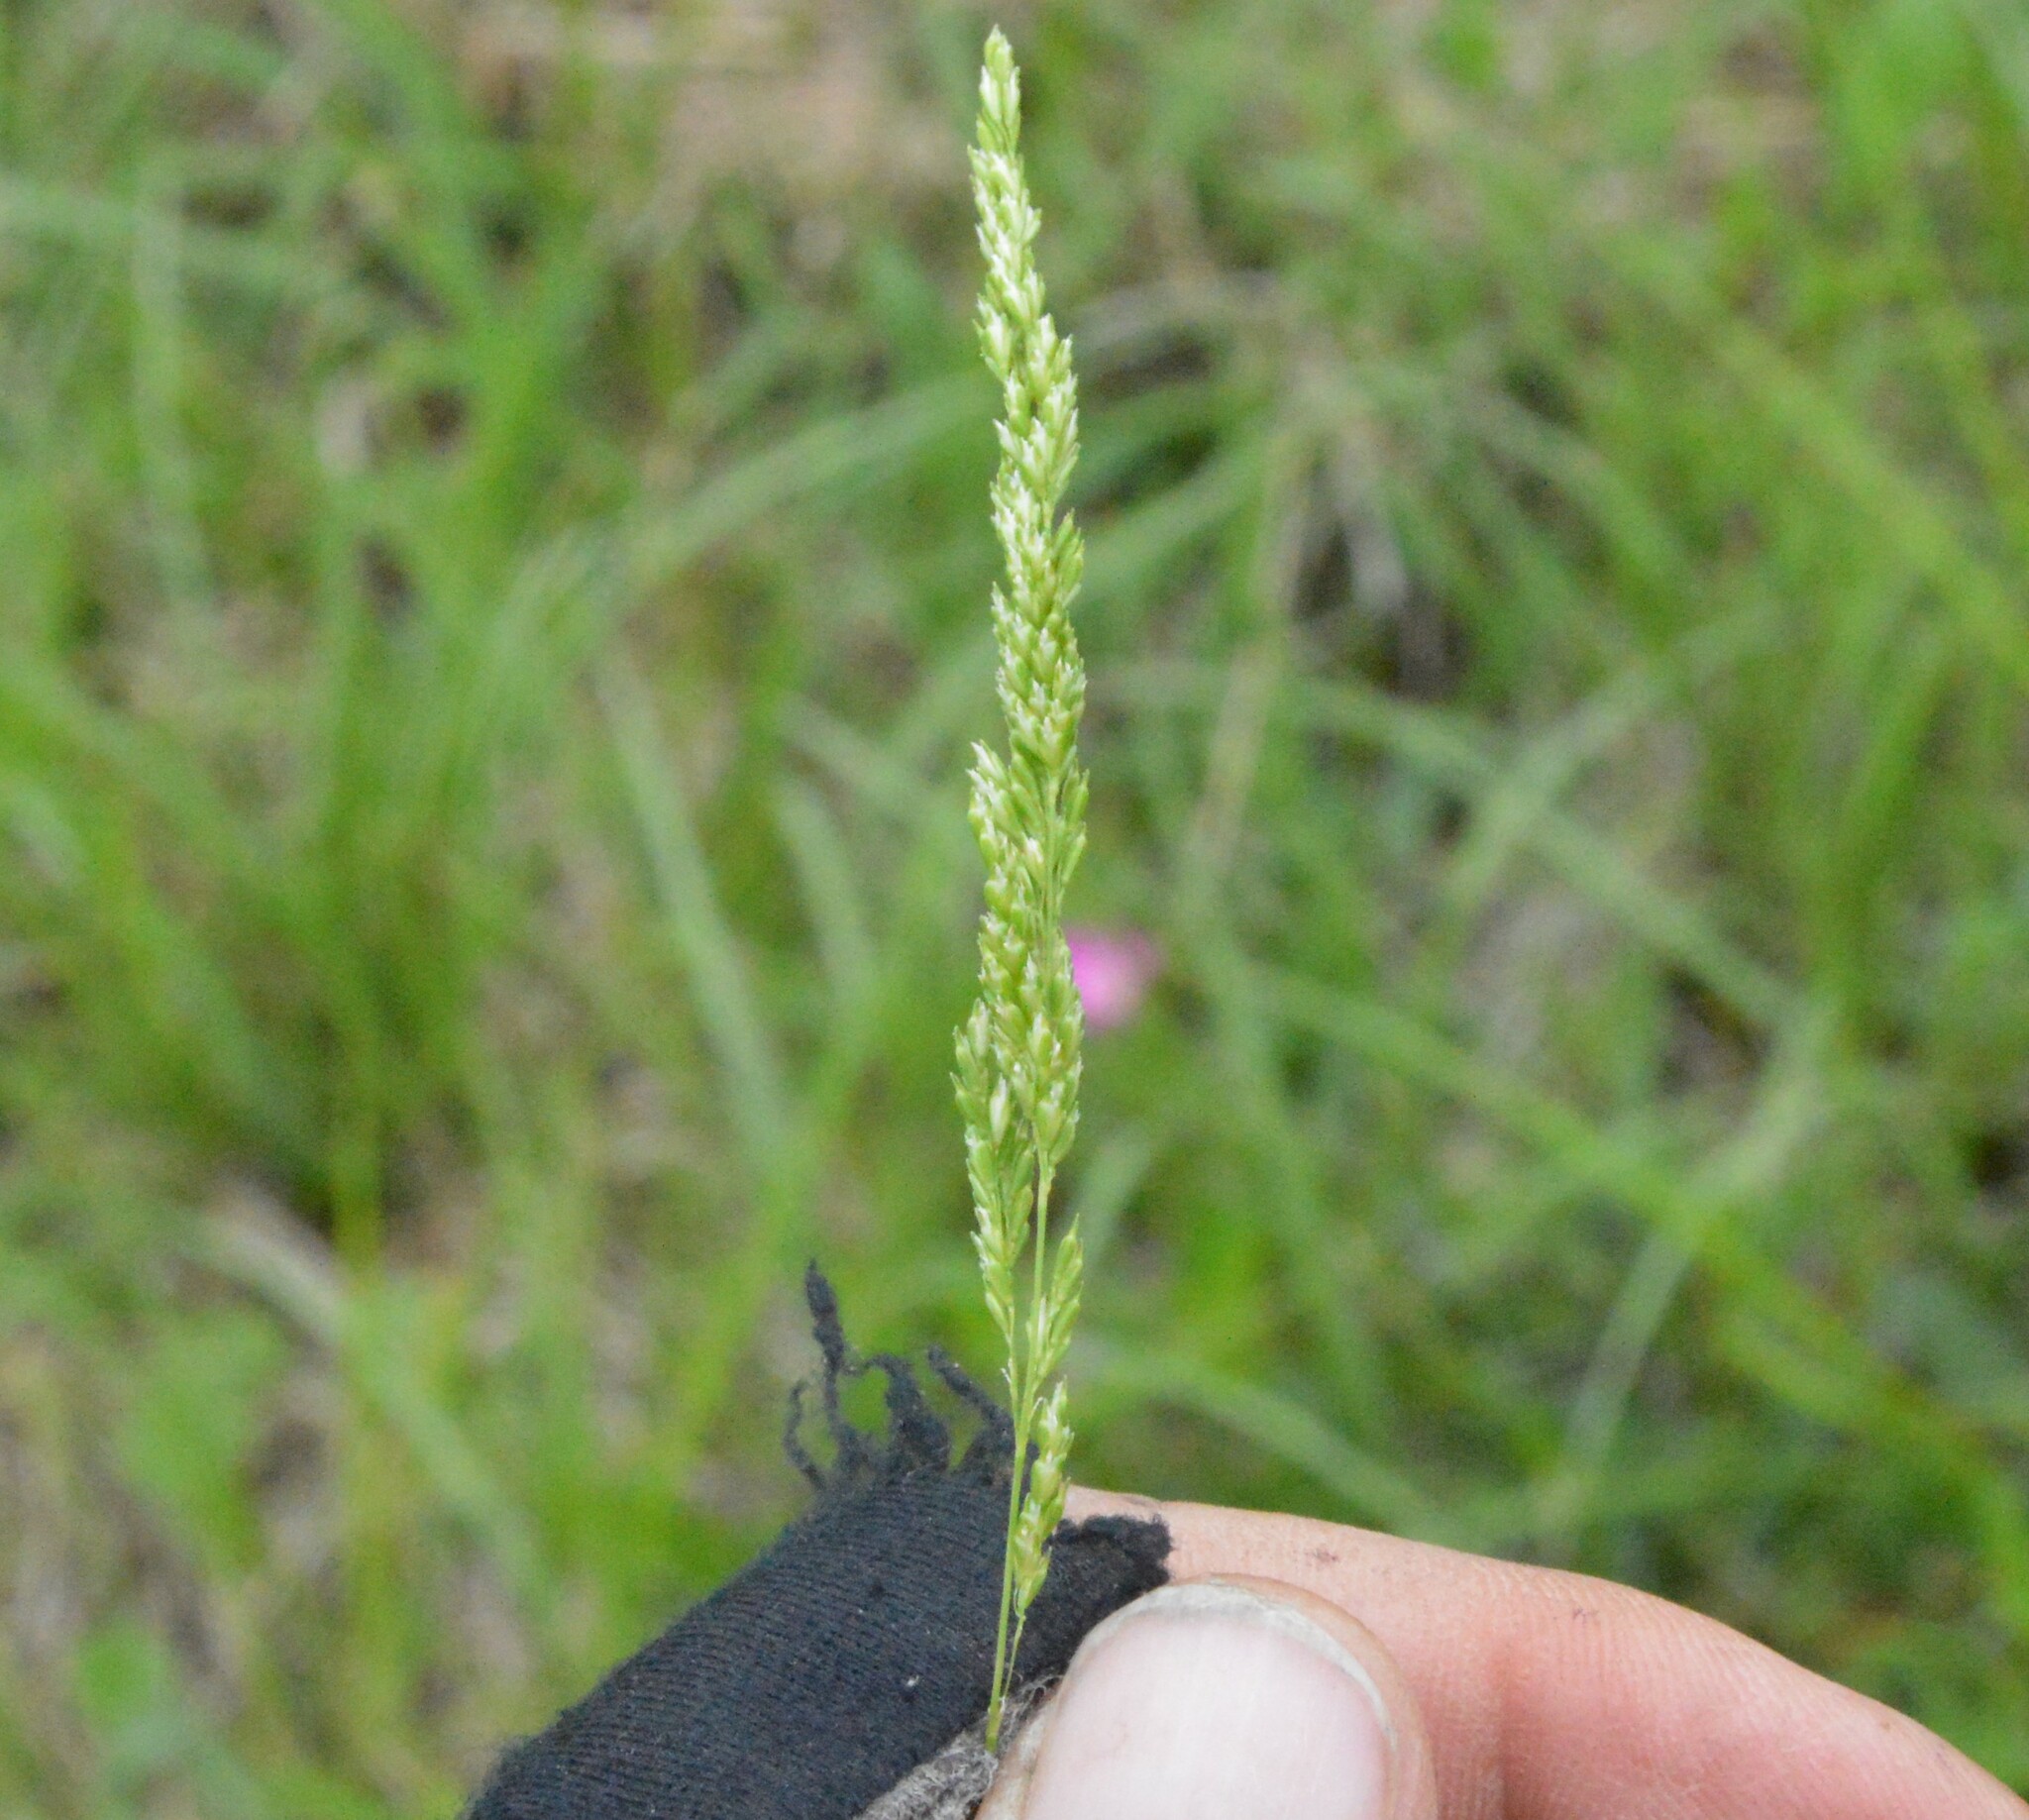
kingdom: Plantae
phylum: Tracheophyta
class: Liliopsida
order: Poales
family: Poaceae
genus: Sphenopholis
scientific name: Sphenopholis obtusata
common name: Prairie grass
